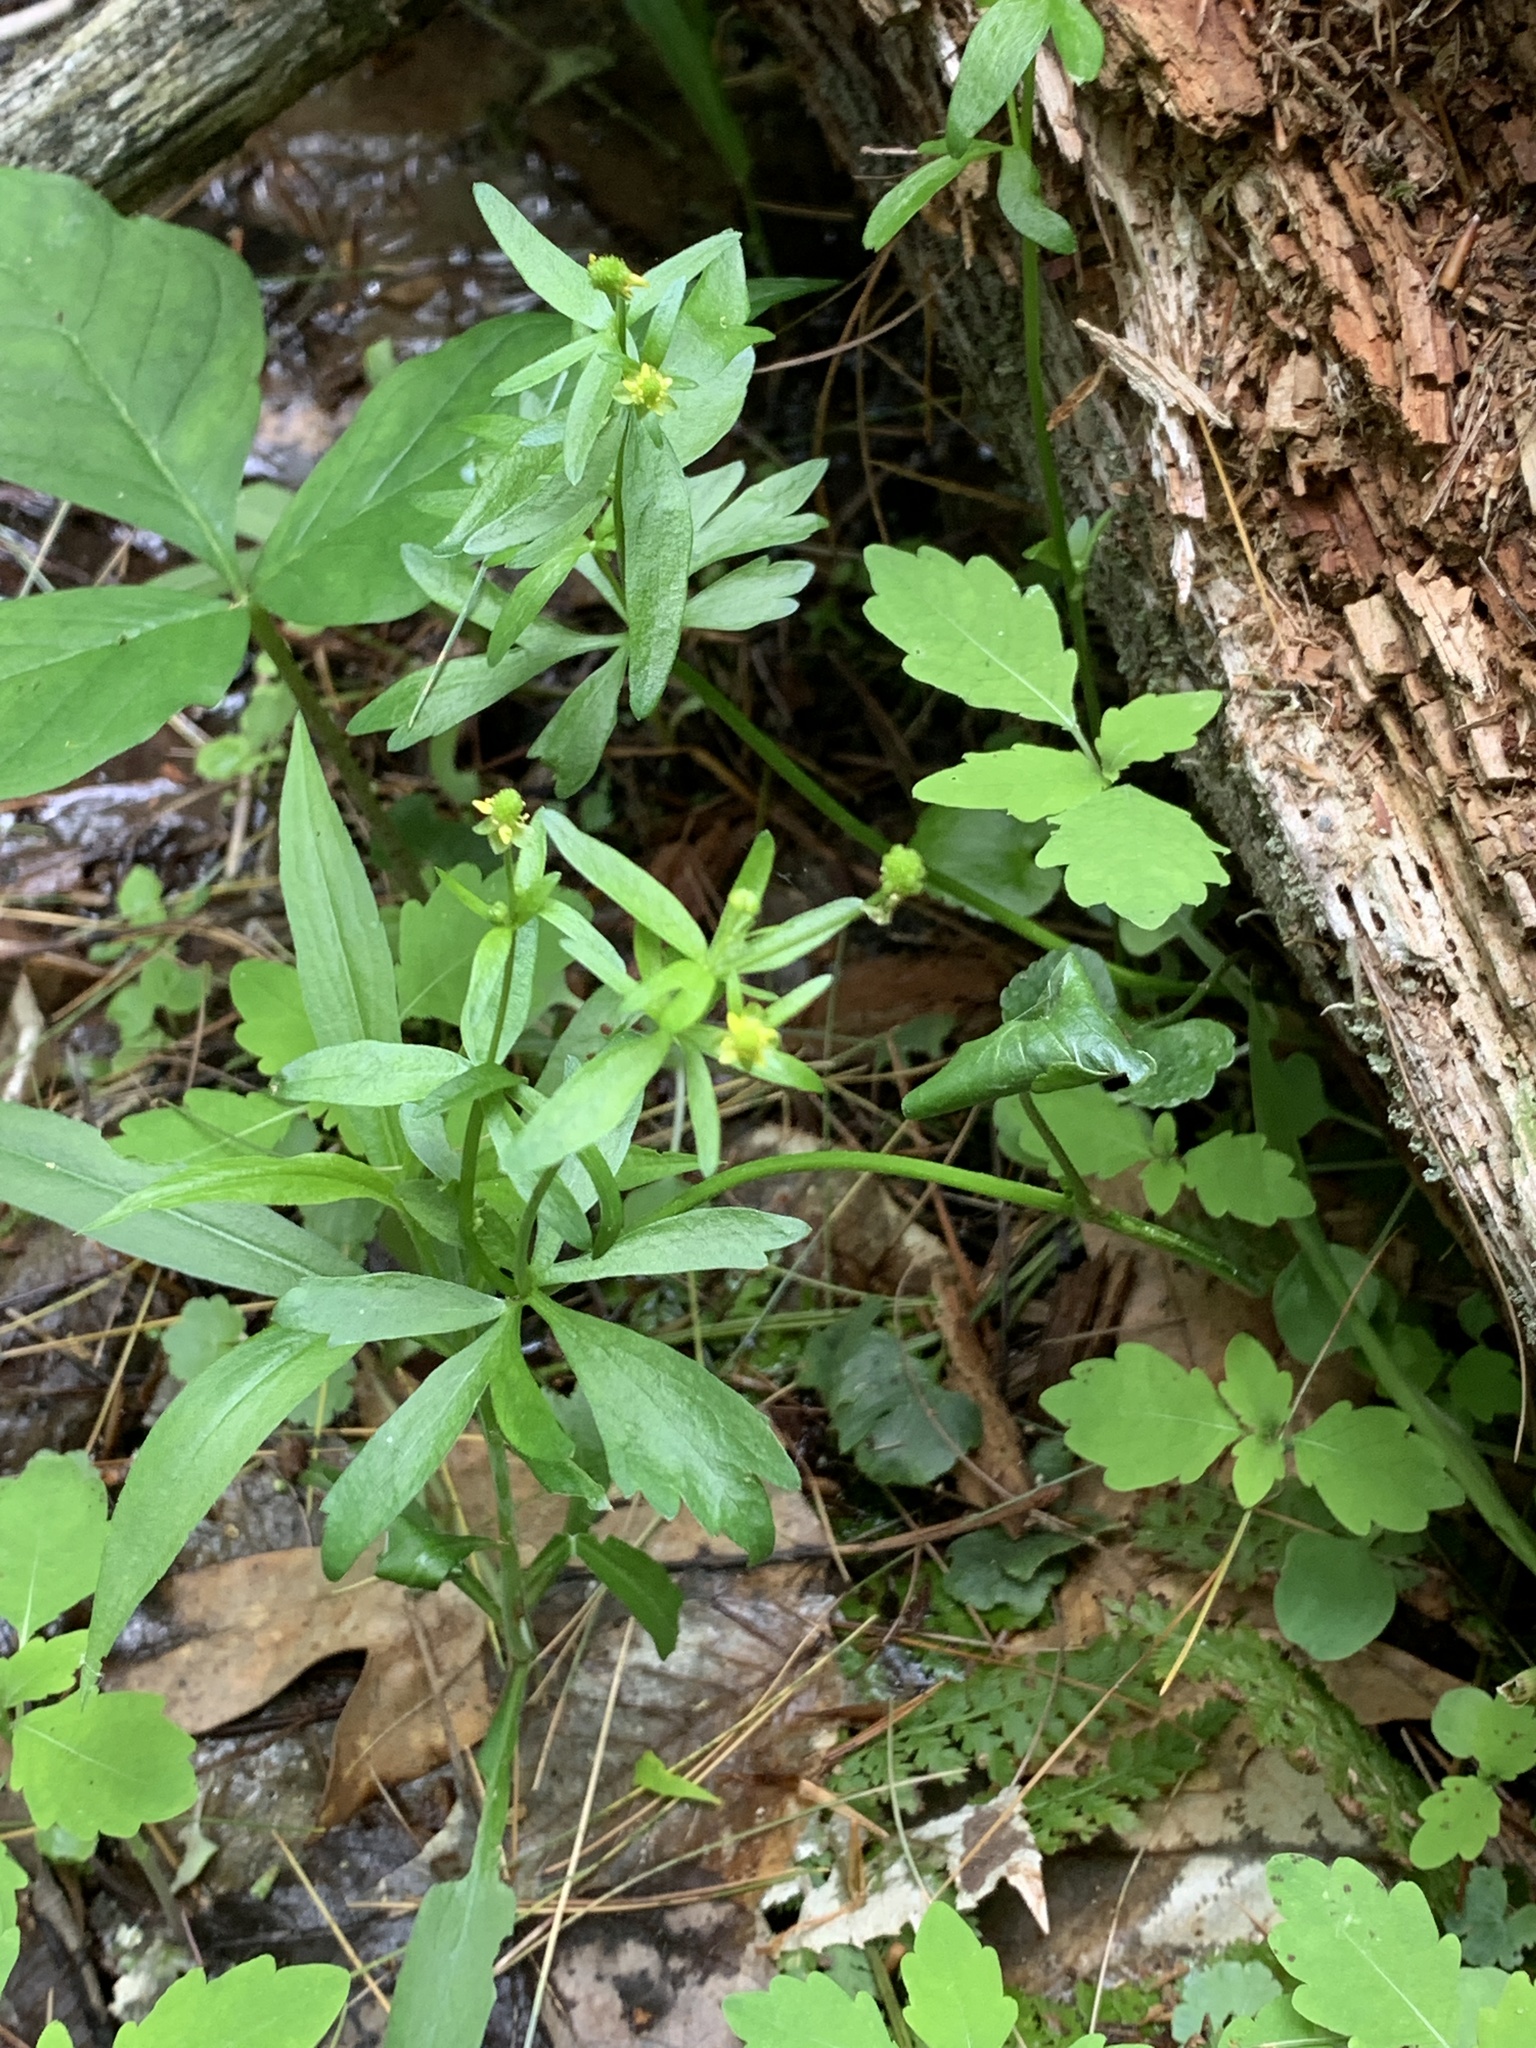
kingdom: Plantae
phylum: Tracheophyta
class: Magnoliopsida
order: Ranunculales
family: Ranunculaceae
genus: Ranunculus
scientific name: Ranunculus abortivus
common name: Early wood buttercup
